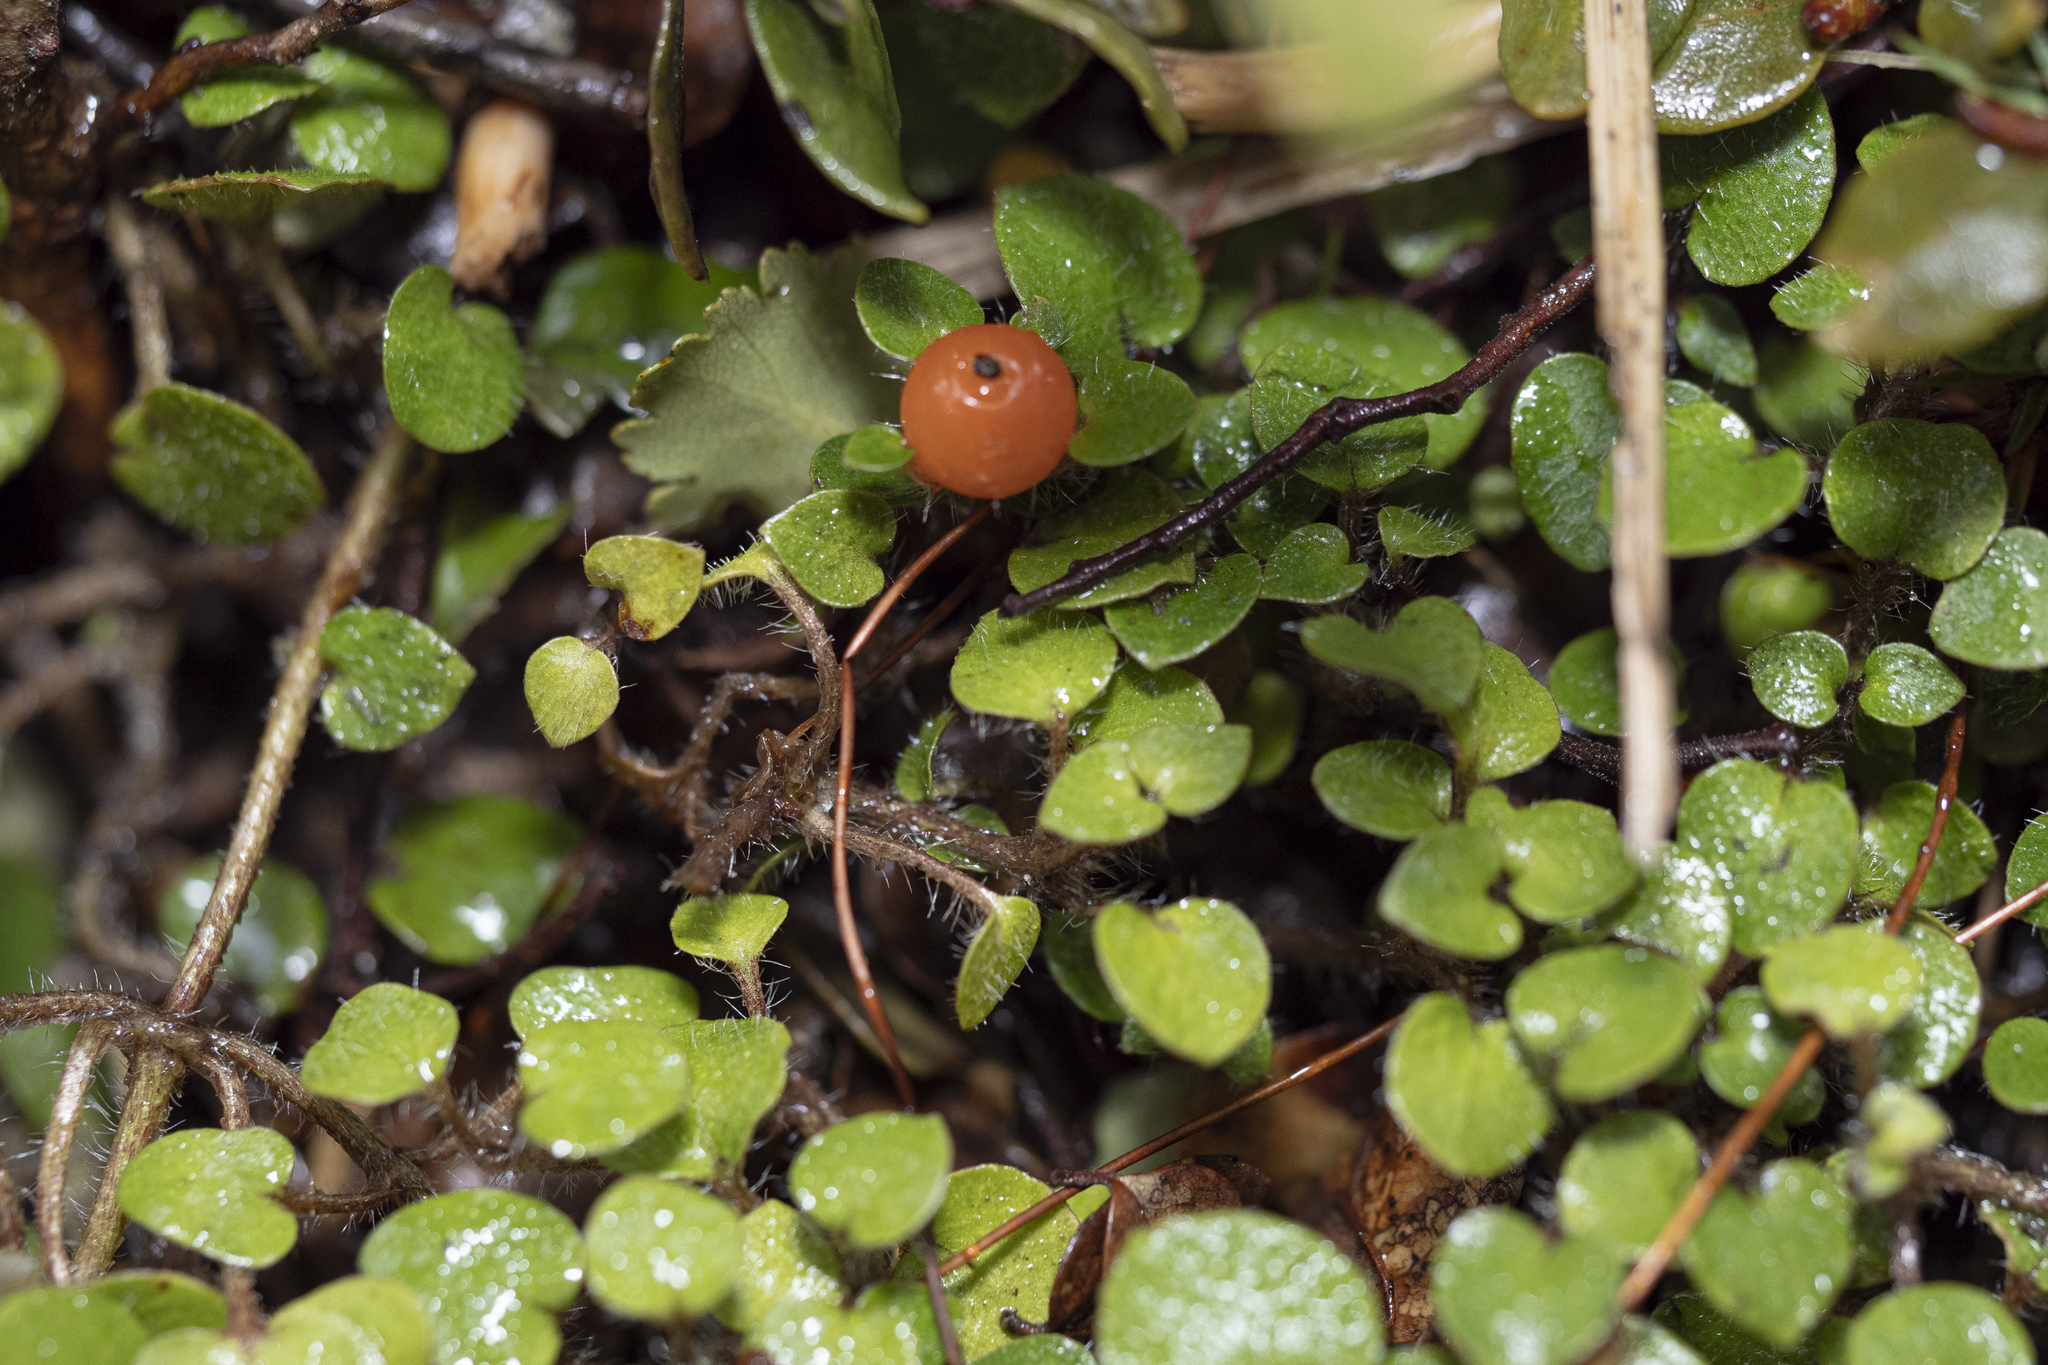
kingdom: Plantae
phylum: Tracheophyta
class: Magnoliopsida
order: Gentianales
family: Rubiaceae
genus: Nertera
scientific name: Nertera villosa
